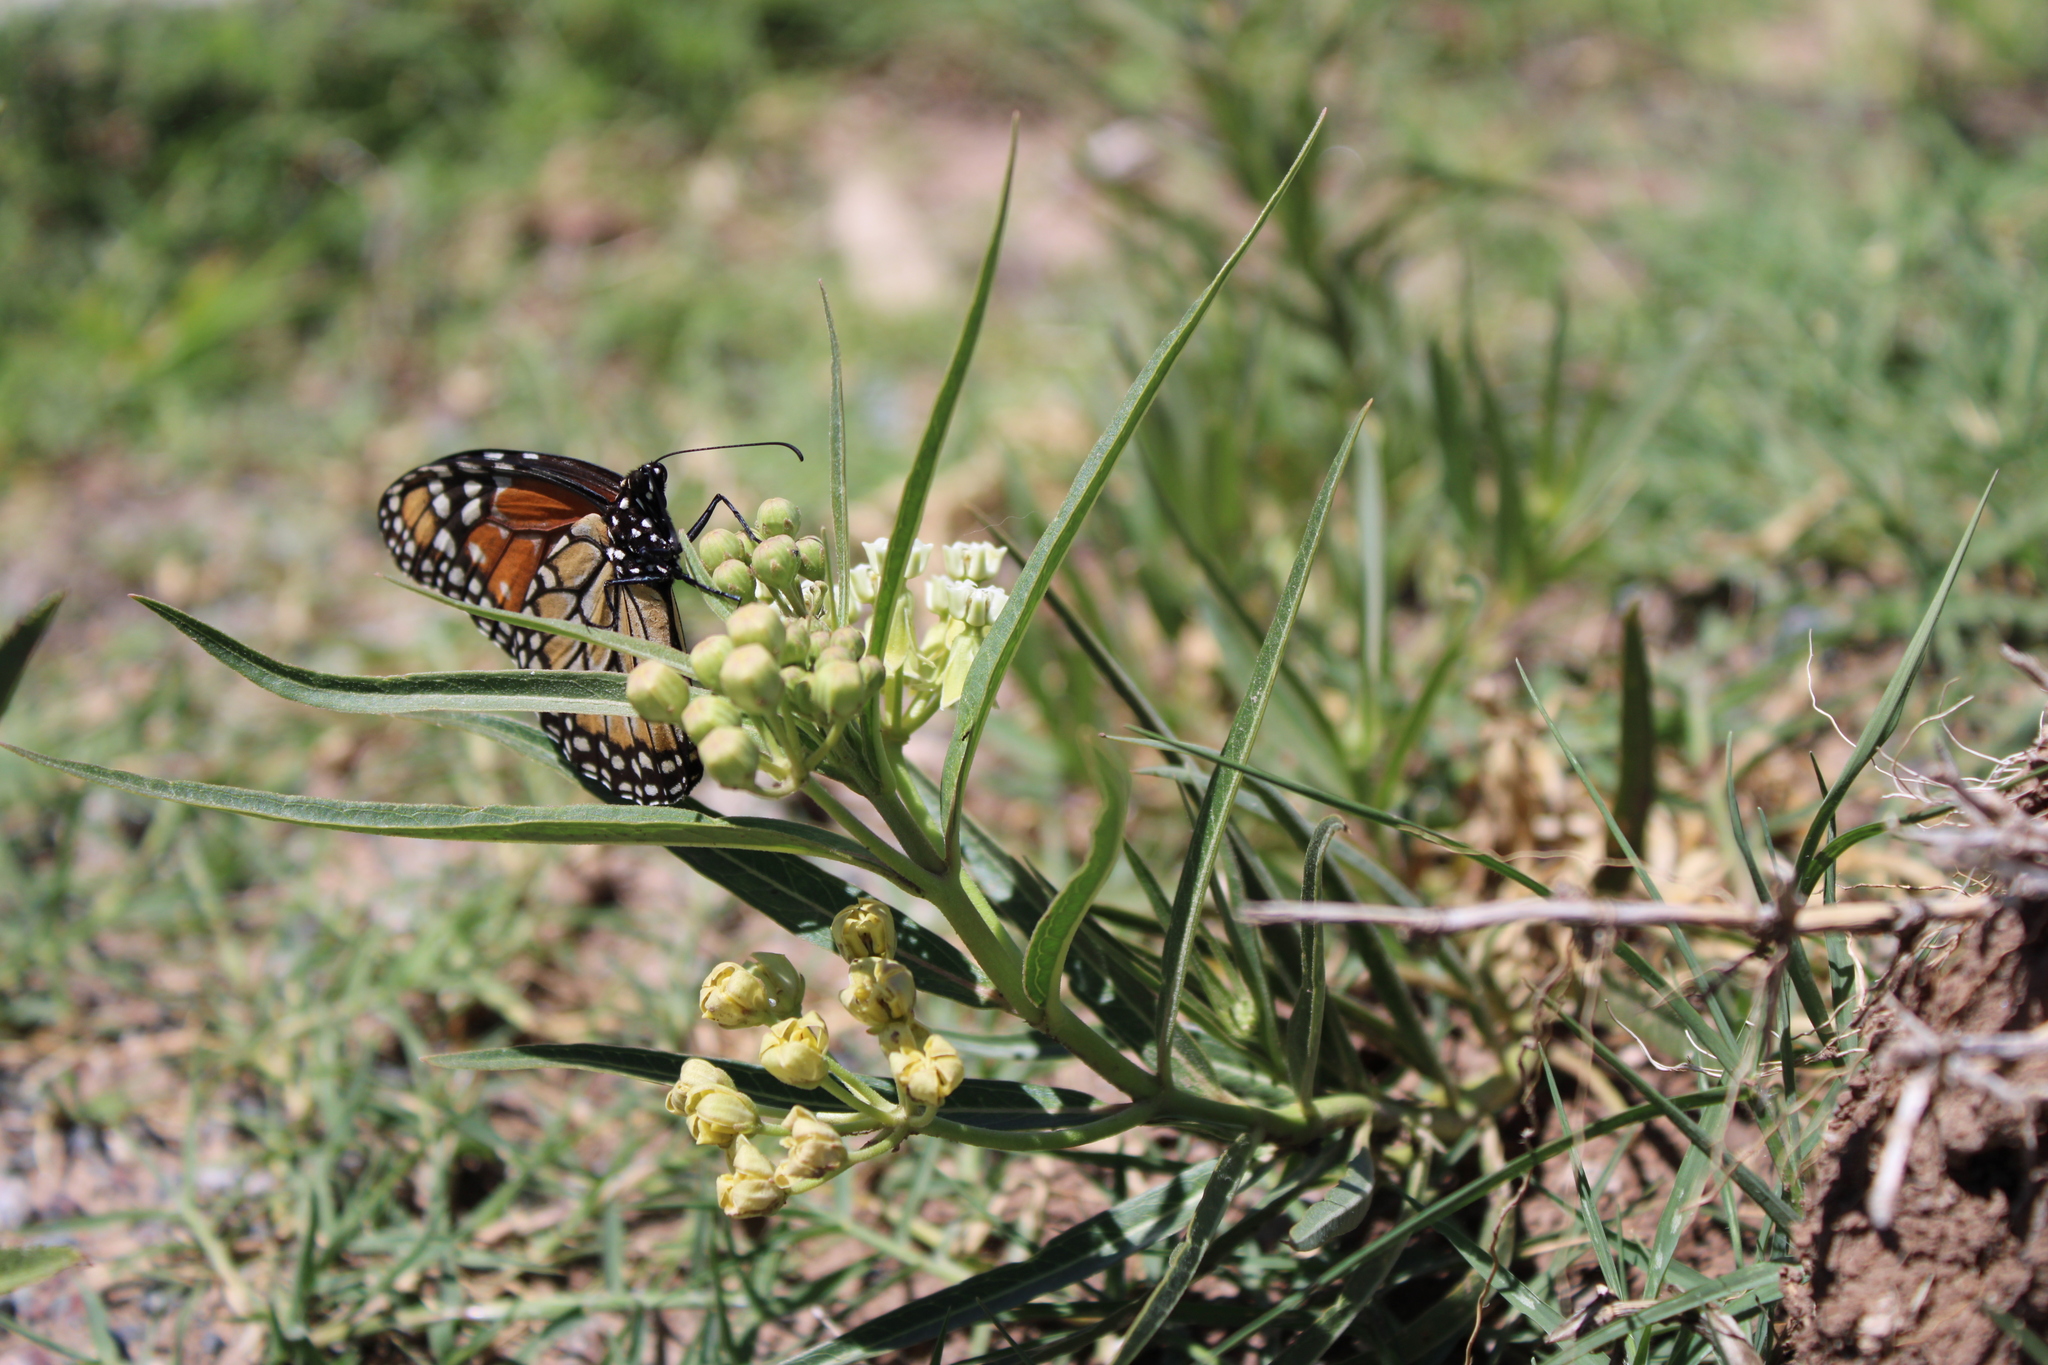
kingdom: Animalia
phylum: Arthropoda
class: Insecta
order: Lepidoptera
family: Nymphalidae
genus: Danaus
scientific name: Danaus erippus
